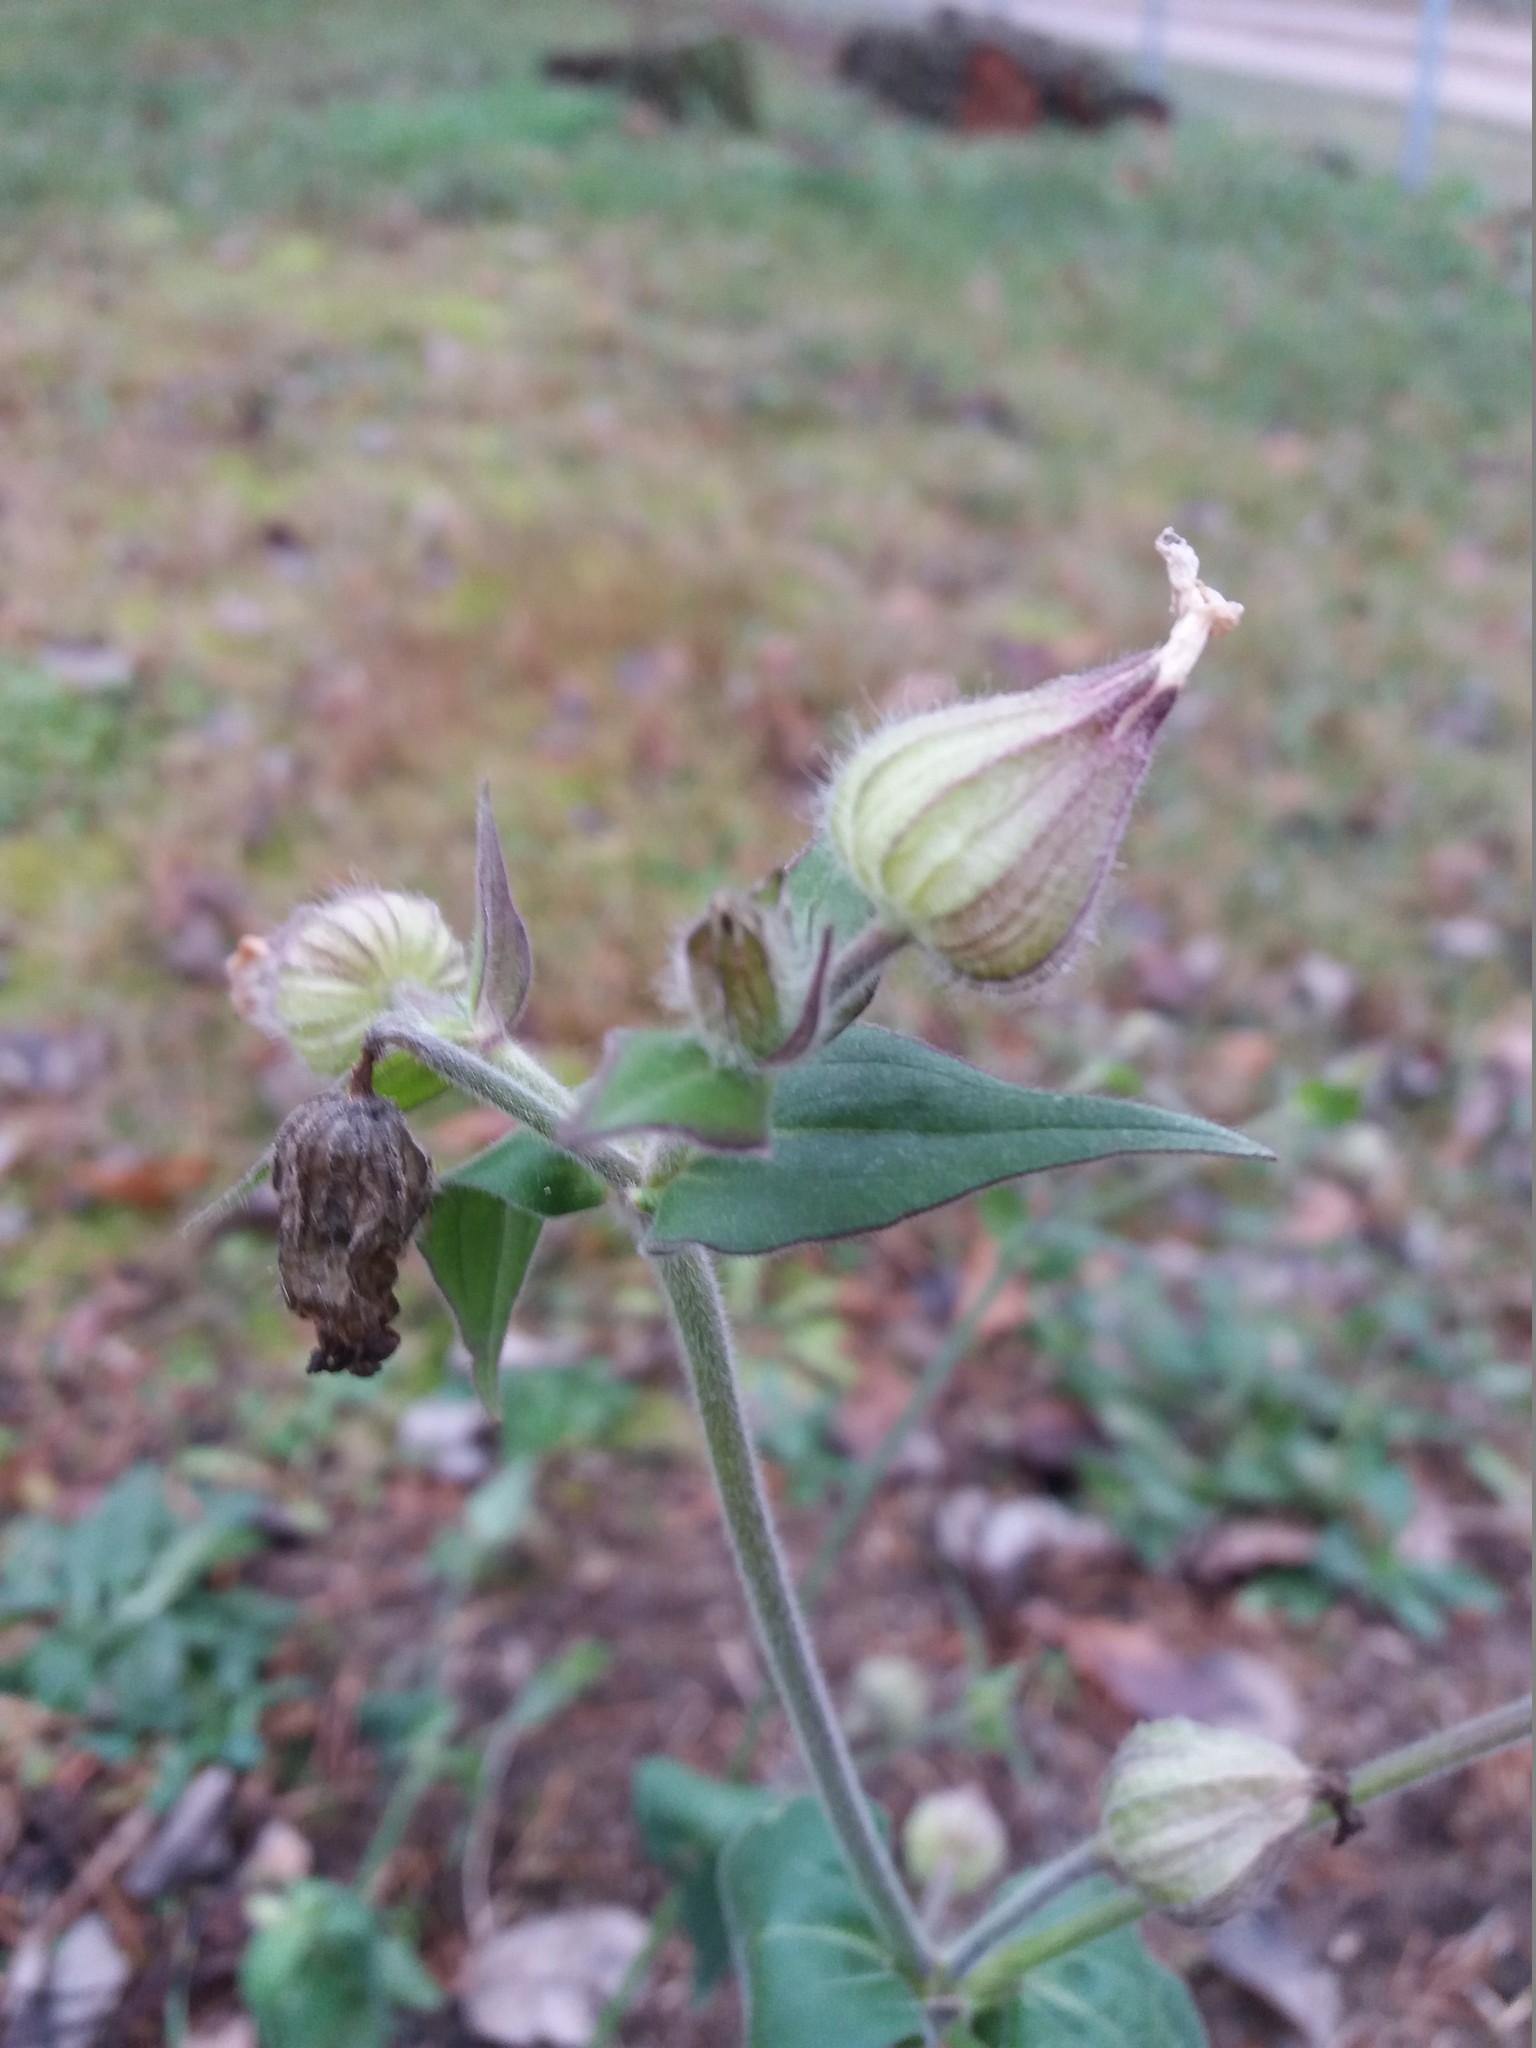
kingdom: Plantae
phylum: Tracheophyta
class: Magnoliopsida
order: Caryophyllales
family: Caryophyllaceae
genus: Silene
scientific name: Silene latifolia
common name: White campion
